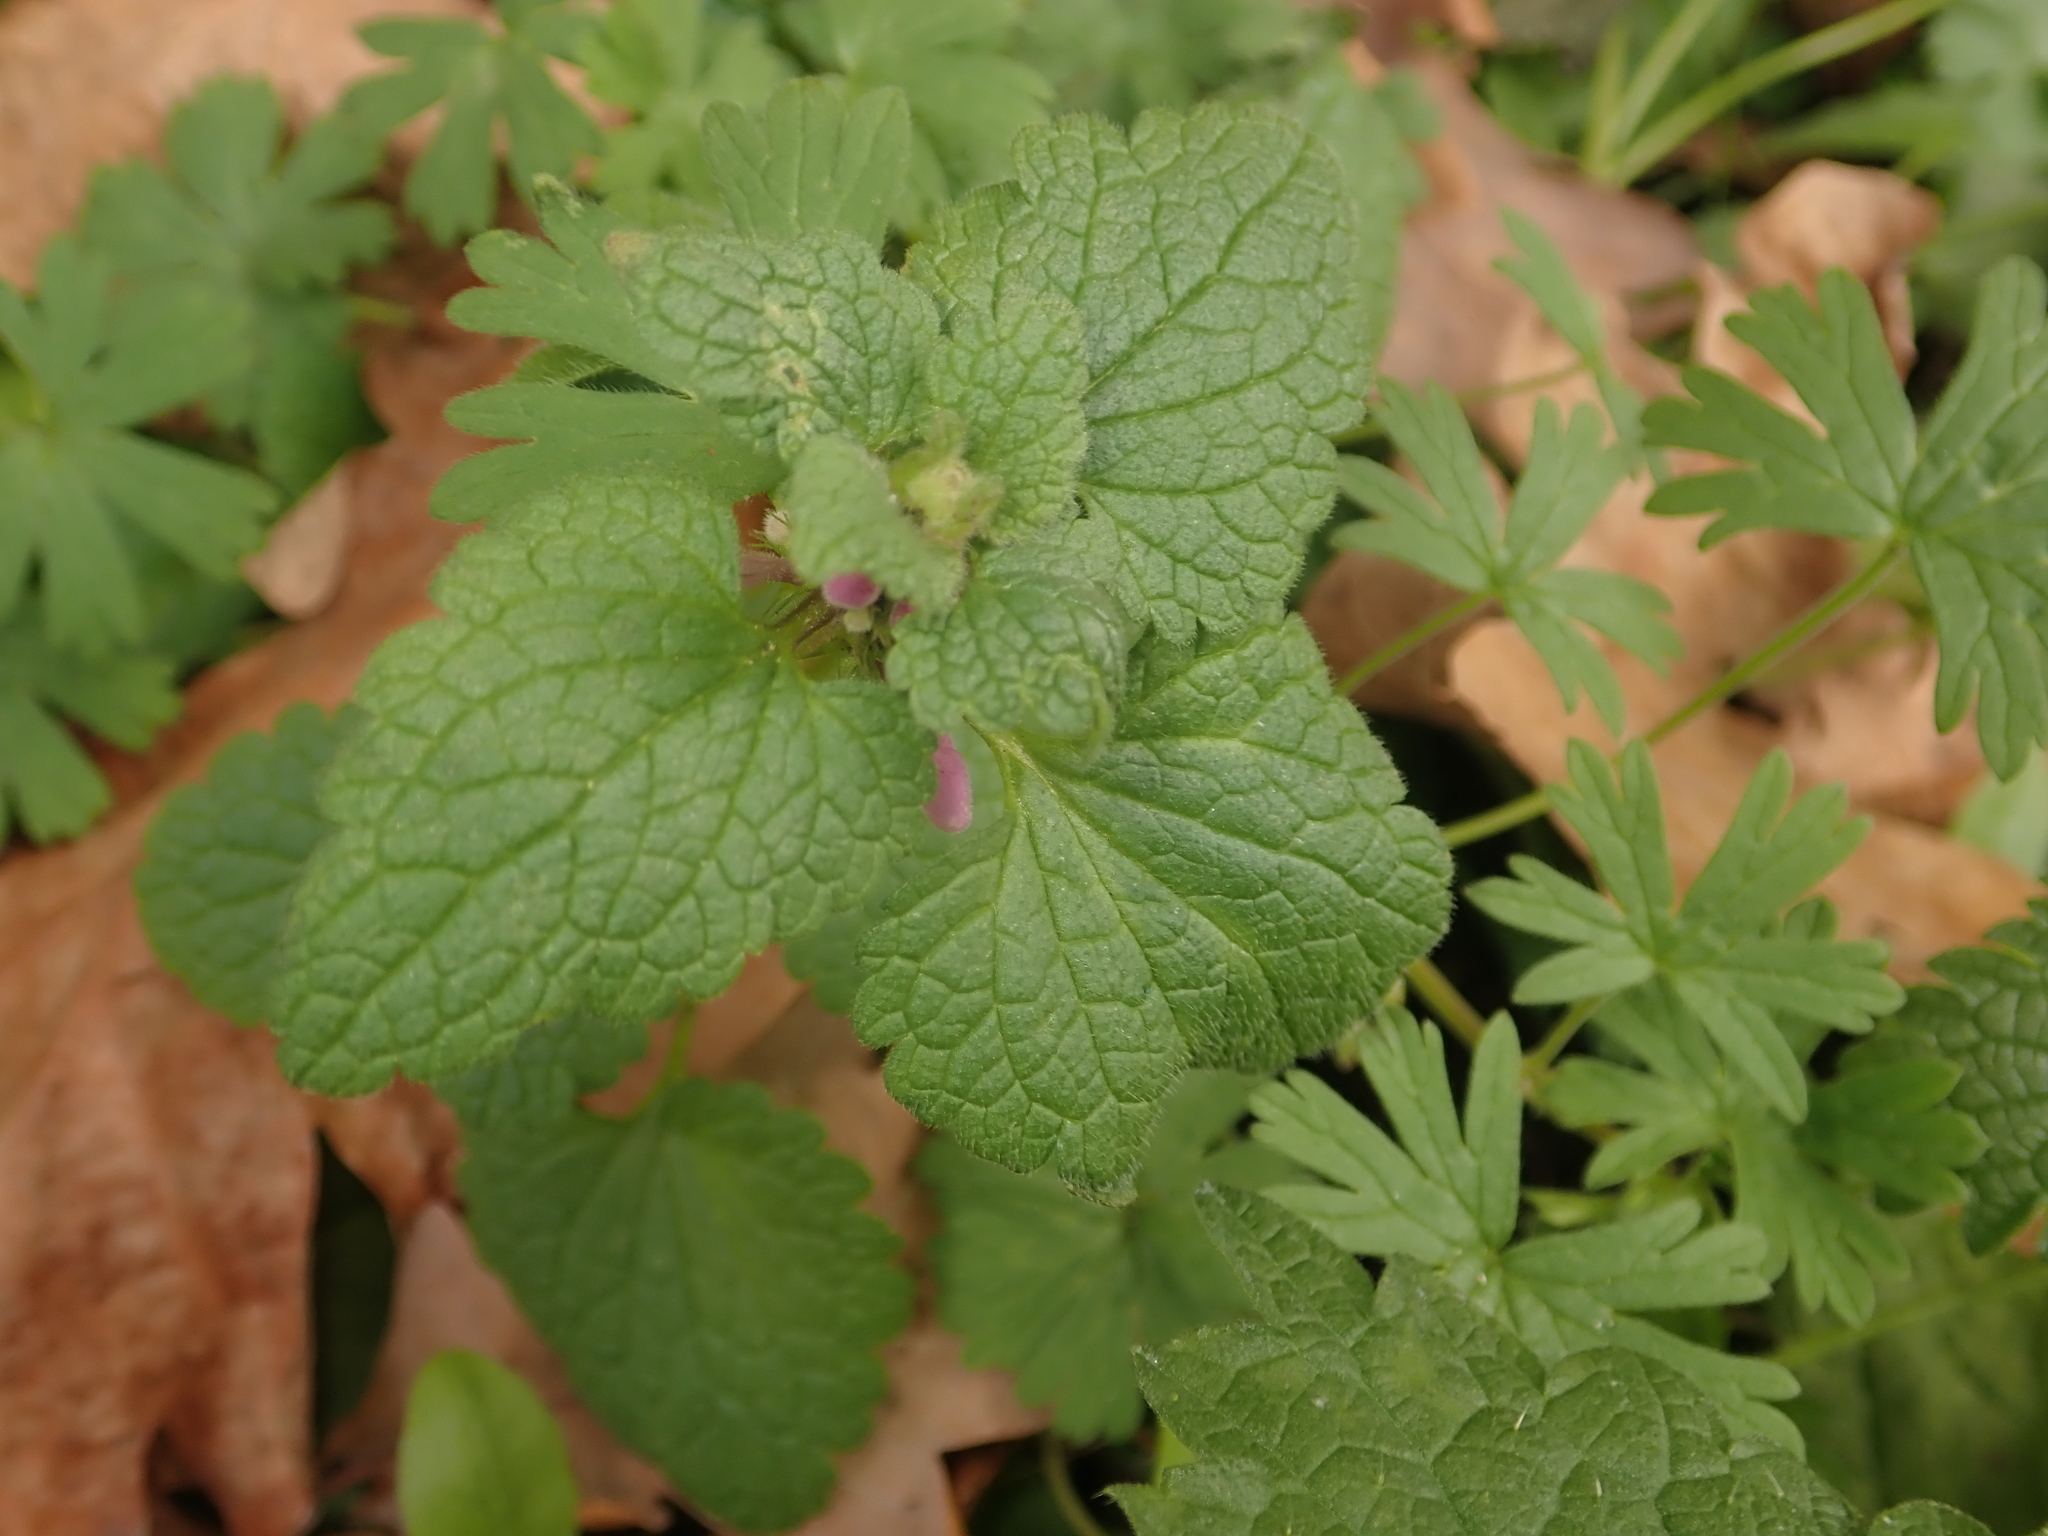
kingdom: Plantae
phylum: Tracheophyta
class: Magnoliopsida
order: Lamiales
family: Lamiaceae
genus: Lamium
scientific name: Lamium purpureum
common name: Red dead-nettle
